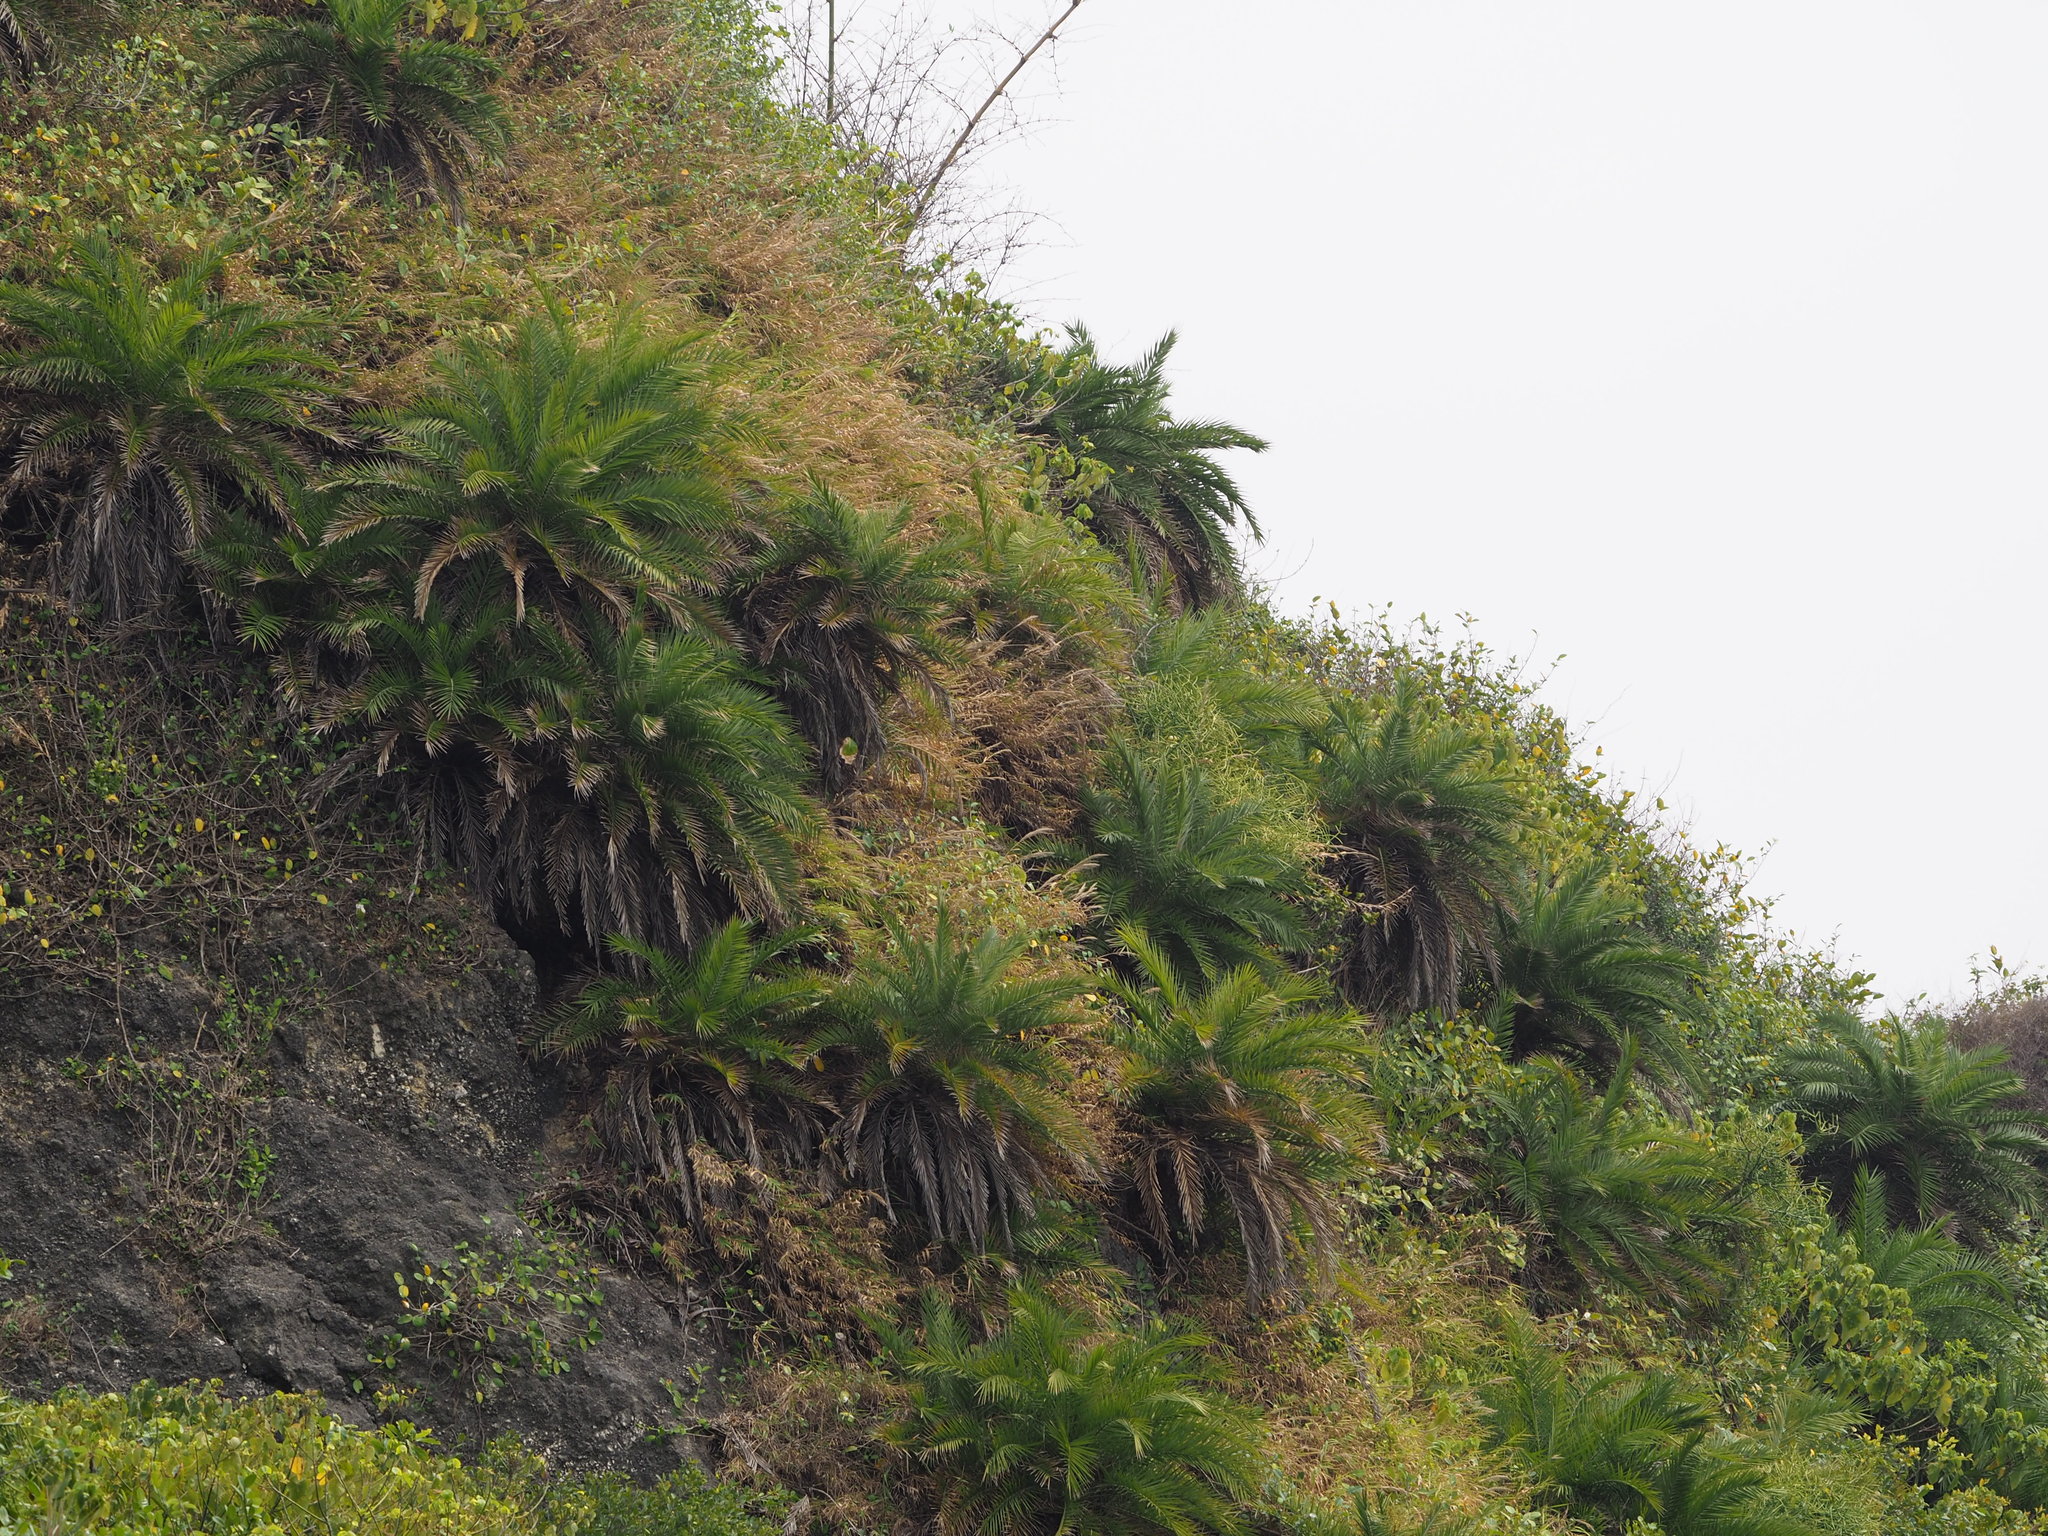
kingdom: Plantae
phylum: Tracheophyta
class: Liliopsida
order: Arecales
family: Arecaceae
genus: Phoenix
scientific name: Phoenix loureiroi
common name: Loureiro's palm
